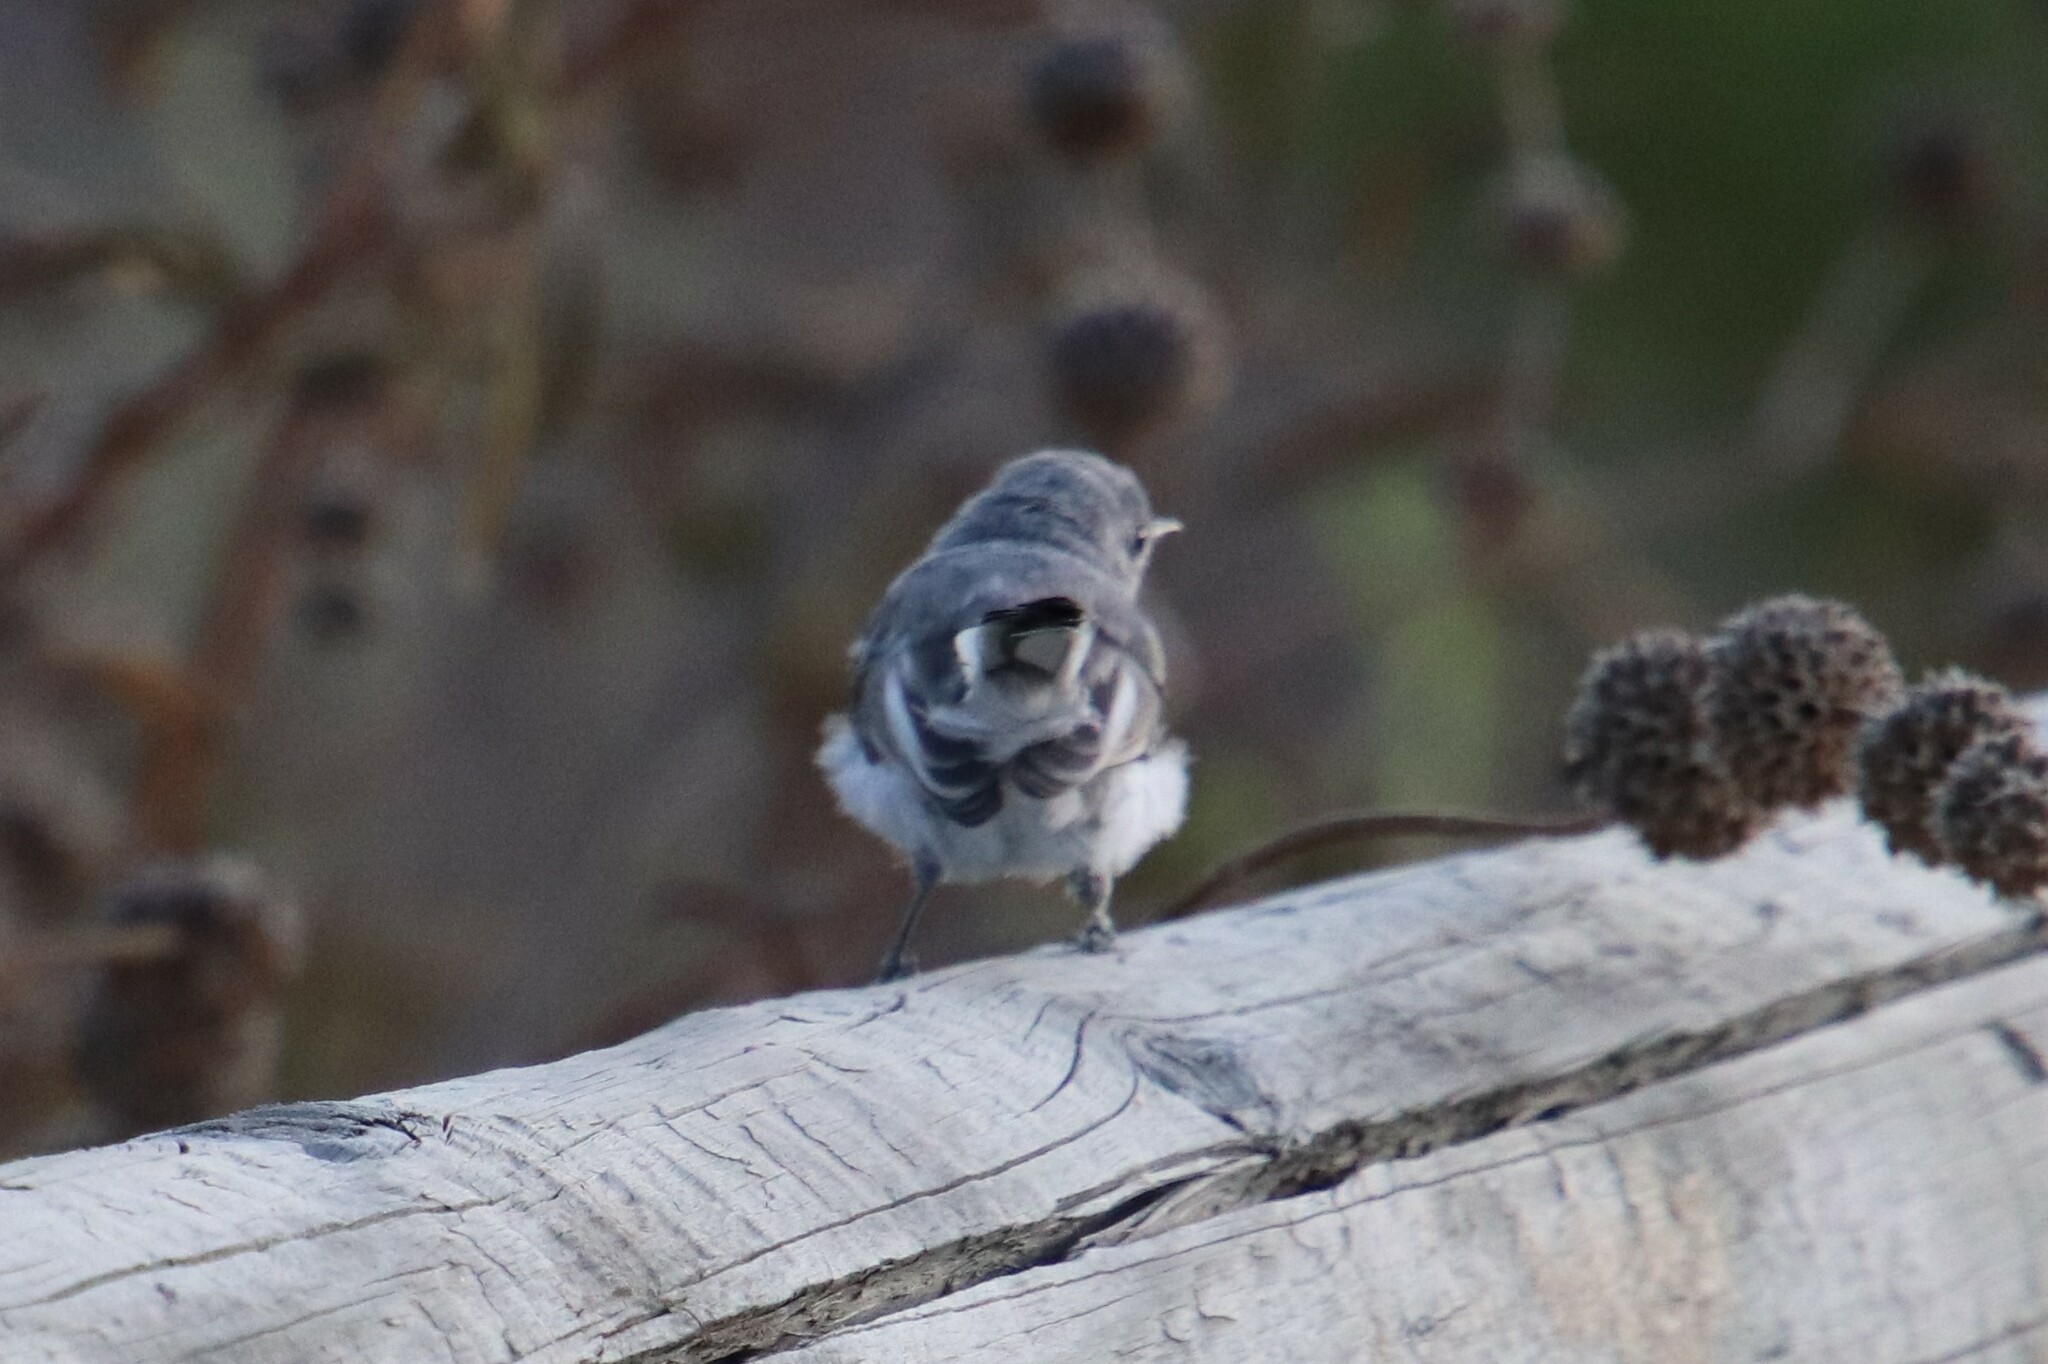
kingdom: Animalia
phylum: Chordata
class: Aves
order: Passeriformes
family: Polioptilidae
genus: Polioptila
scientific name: Polioptila caerulea
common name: Blue-gray gnatcatcher
